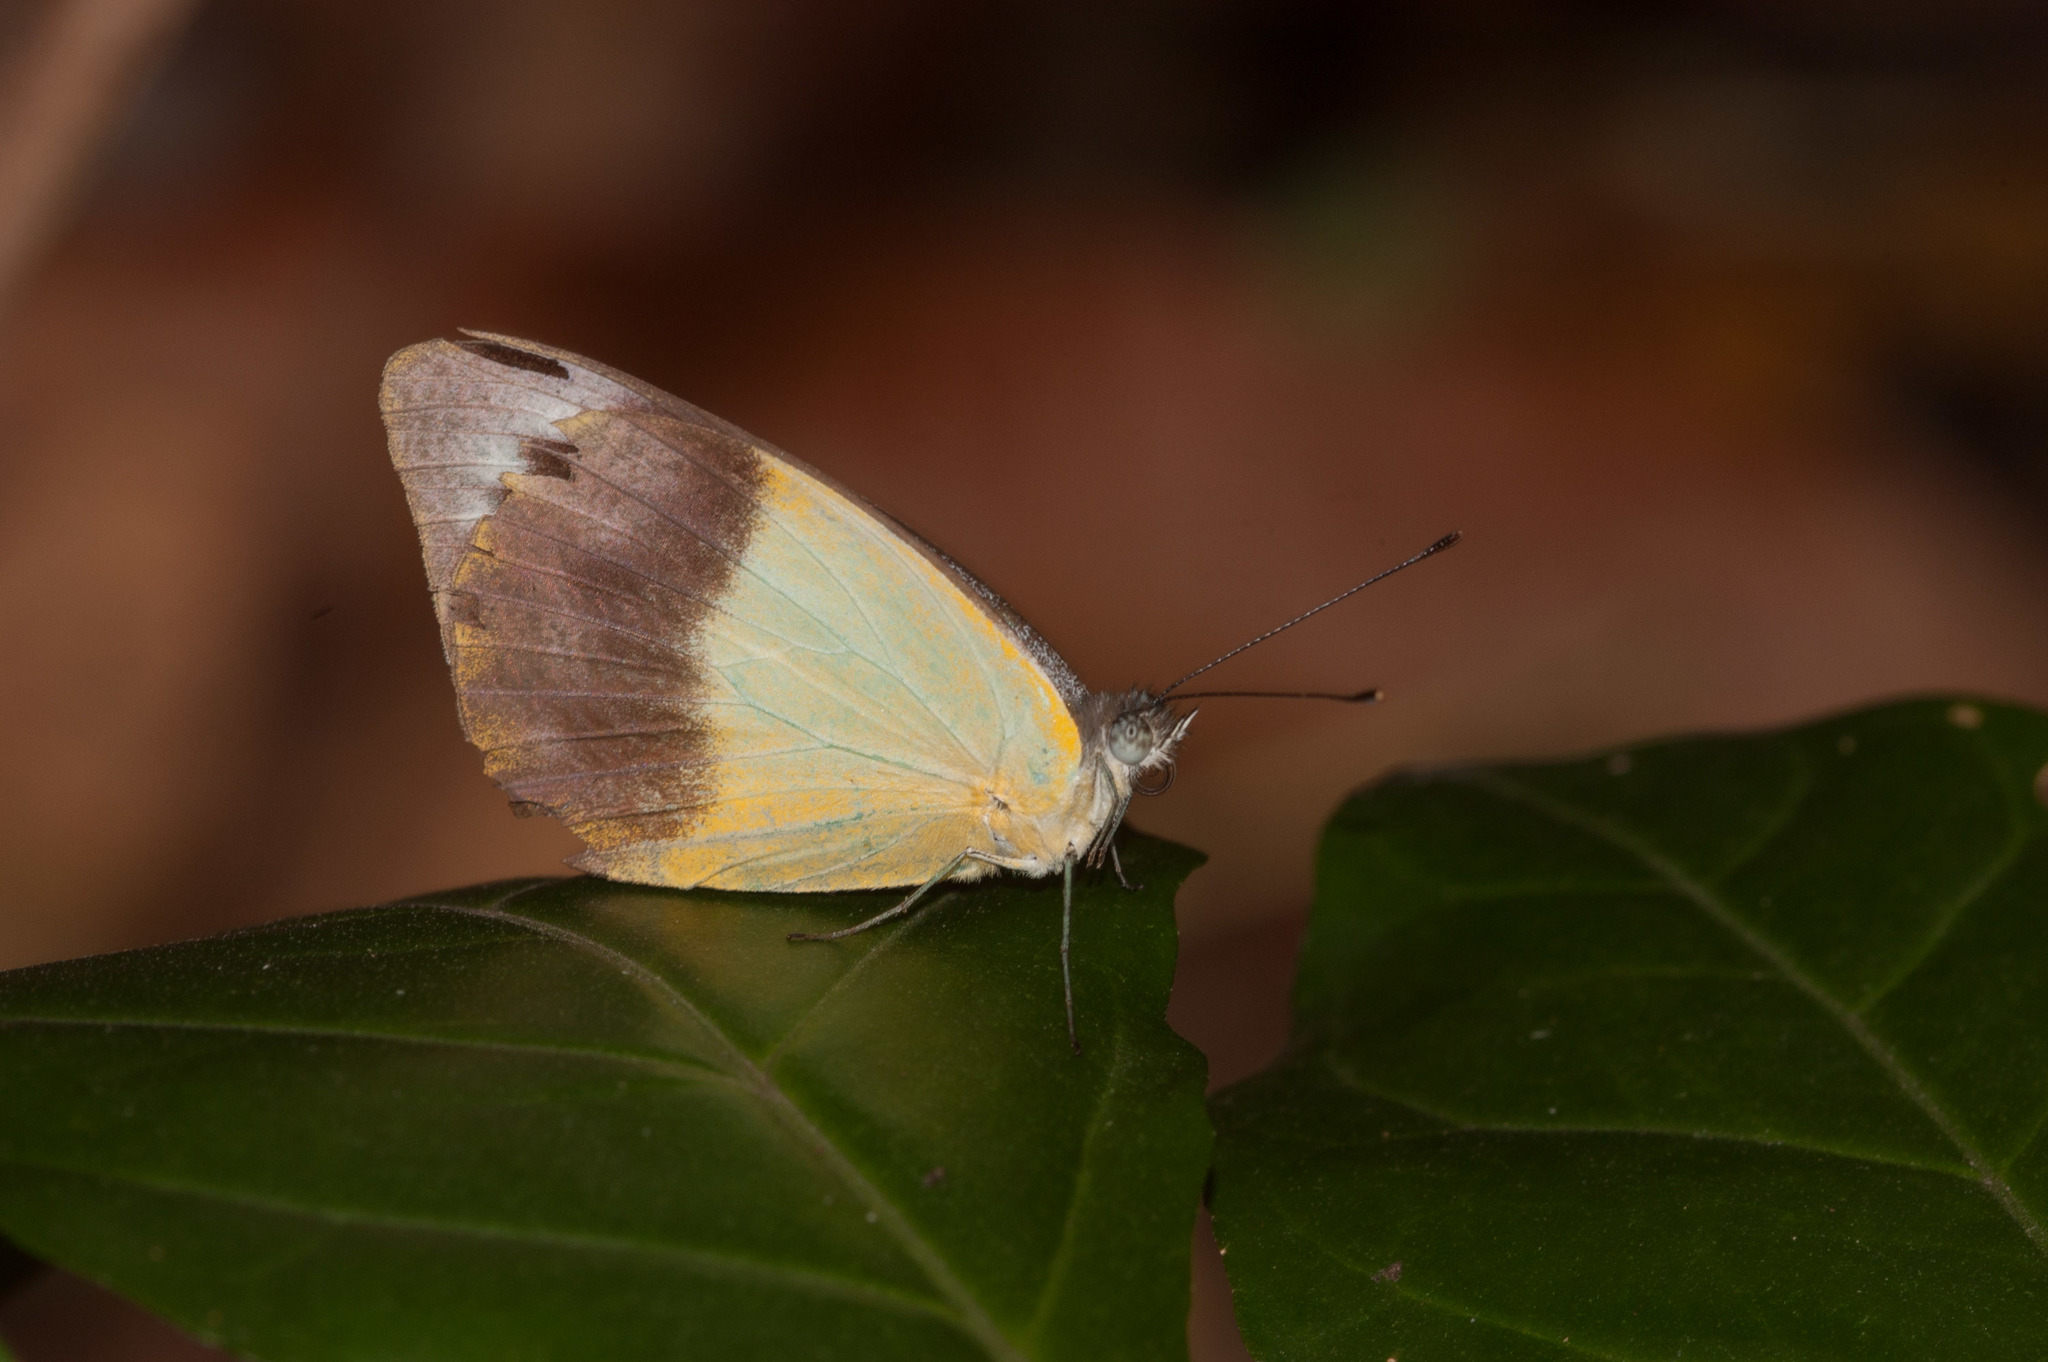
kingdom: Animalia
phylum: Arthropoda
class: Insecta
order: Lepidoptera
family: Pieridae
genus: Appias
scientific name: Appias paulina
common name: Ceylon lesser albatross
